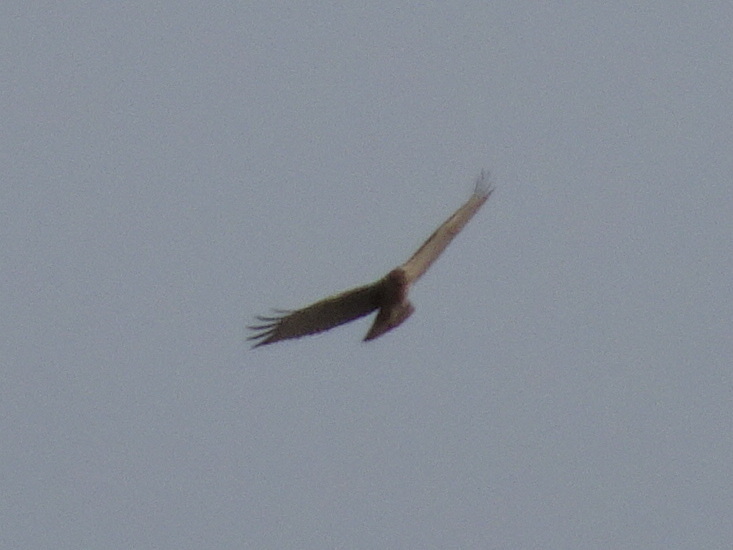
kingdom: Animalia
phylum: Chordata
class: Aves
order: Accipitriformes
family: Accipitridae
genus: Buteo
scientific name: Buteo jamaicensis
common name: Red-tailed hawk
